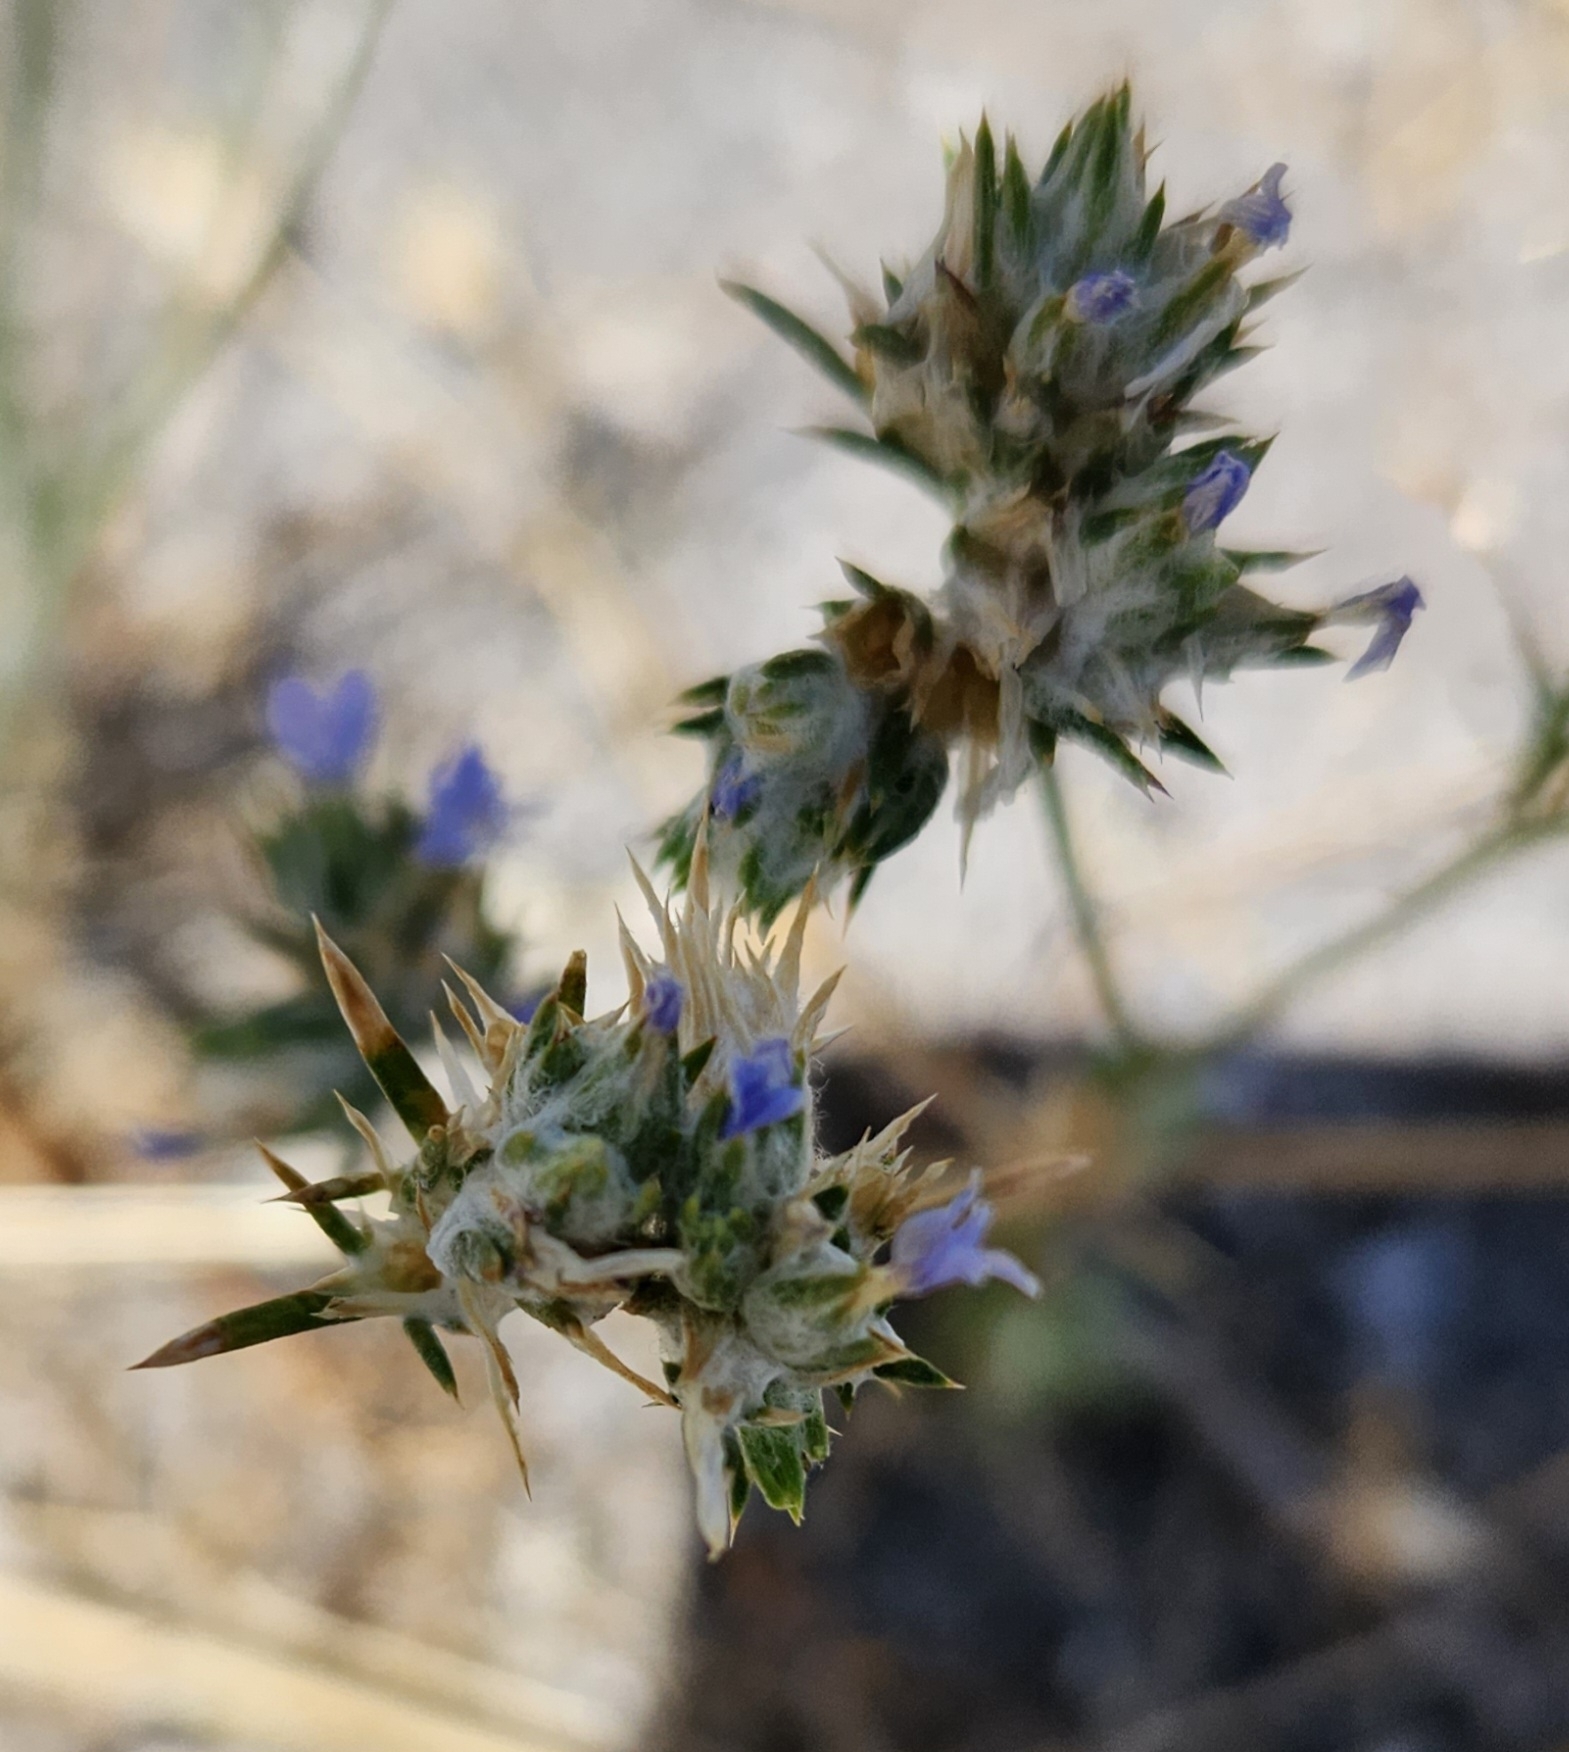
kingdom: Plantae
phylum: Tracheophyta
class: Magnoliopsida
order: Ericales
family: Polemoniaceae
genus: Eriastrum
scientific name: Eriastrum wilcoxii
